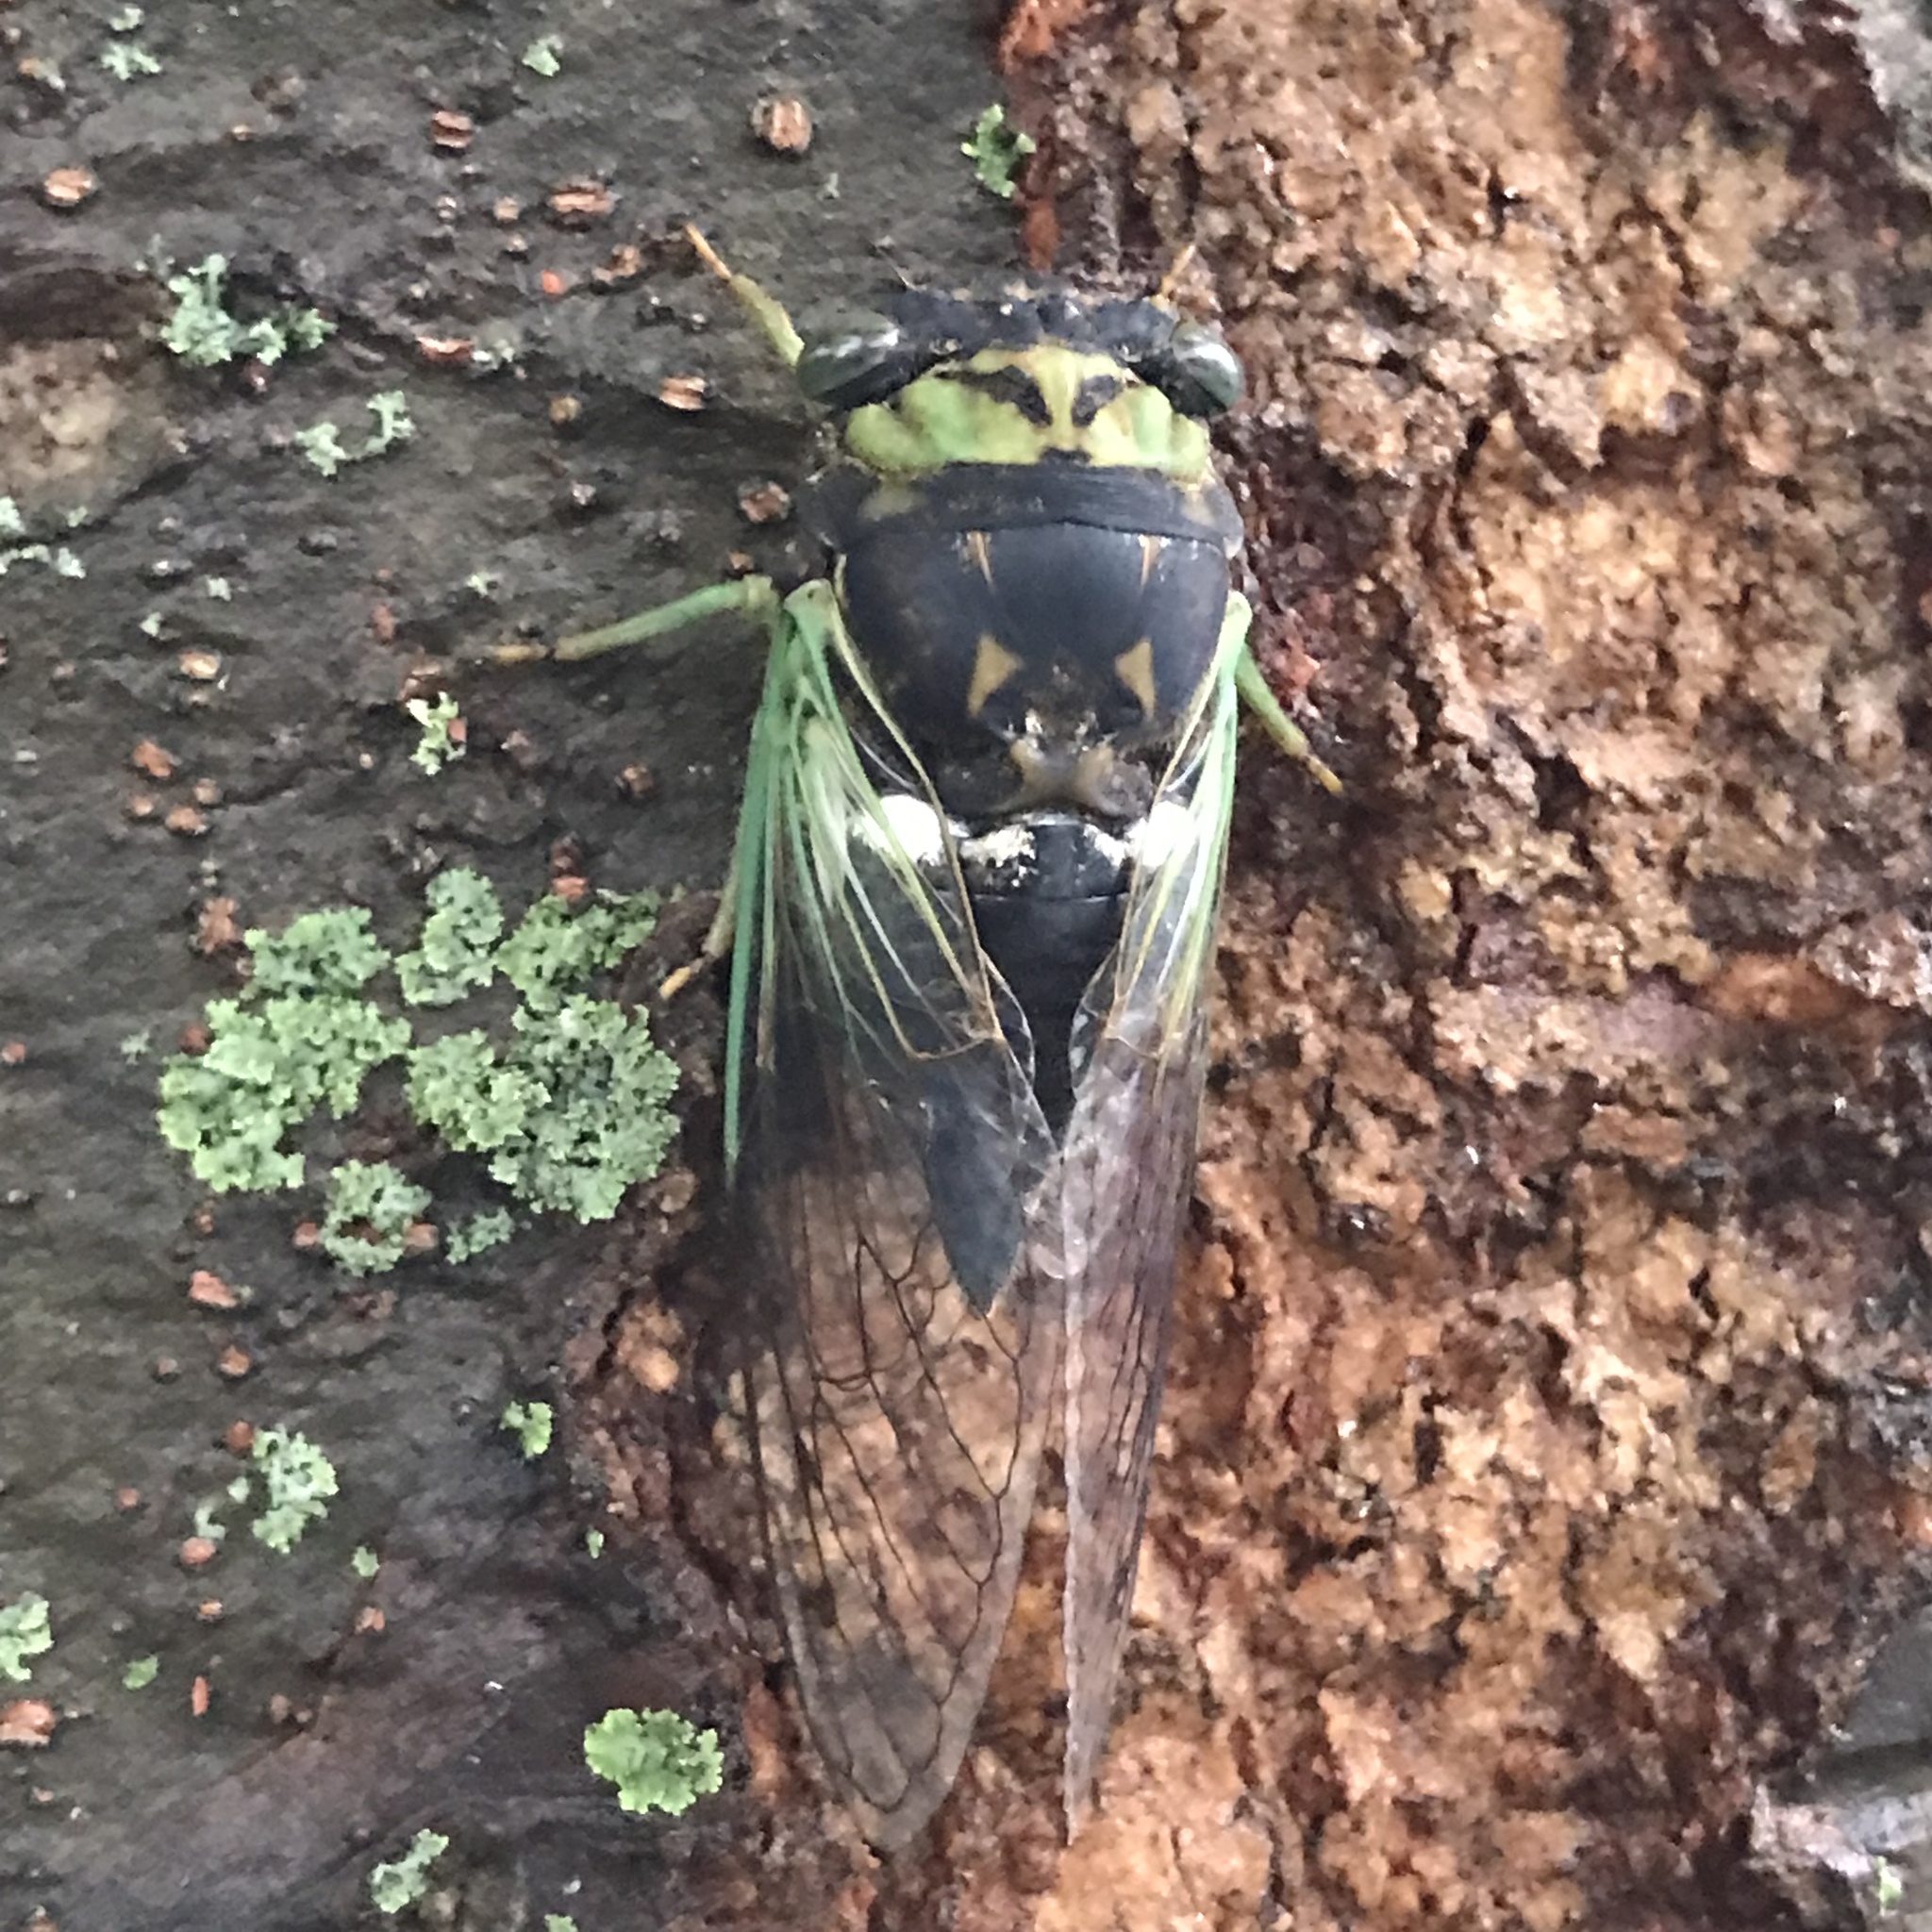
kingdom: Animalia
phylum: Arthropoda
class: Insecta
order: Hemiptera
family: Cicadidae
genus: Neotibicen
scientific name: Neotibicen tibicen
